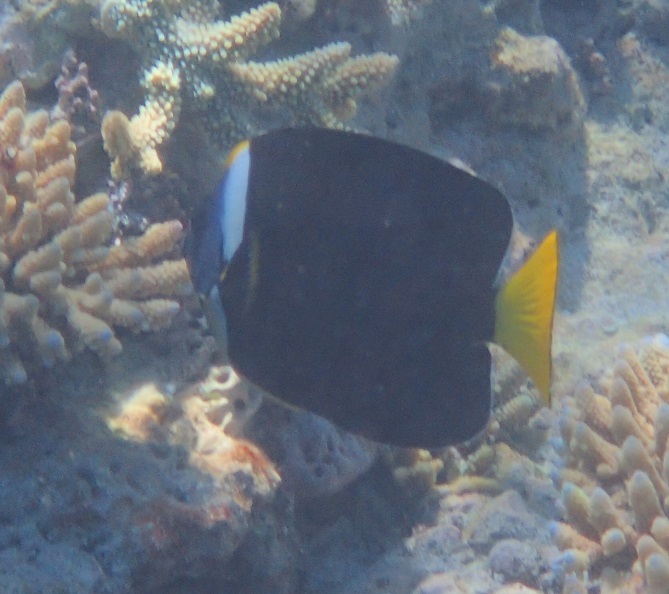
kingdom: Animalia
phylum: Chordata
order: Perciformes
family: Pomacanthidae
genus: Chaetodontoplus
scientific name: Chaetodontoplus meredithi
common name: Meredith's angelfish
